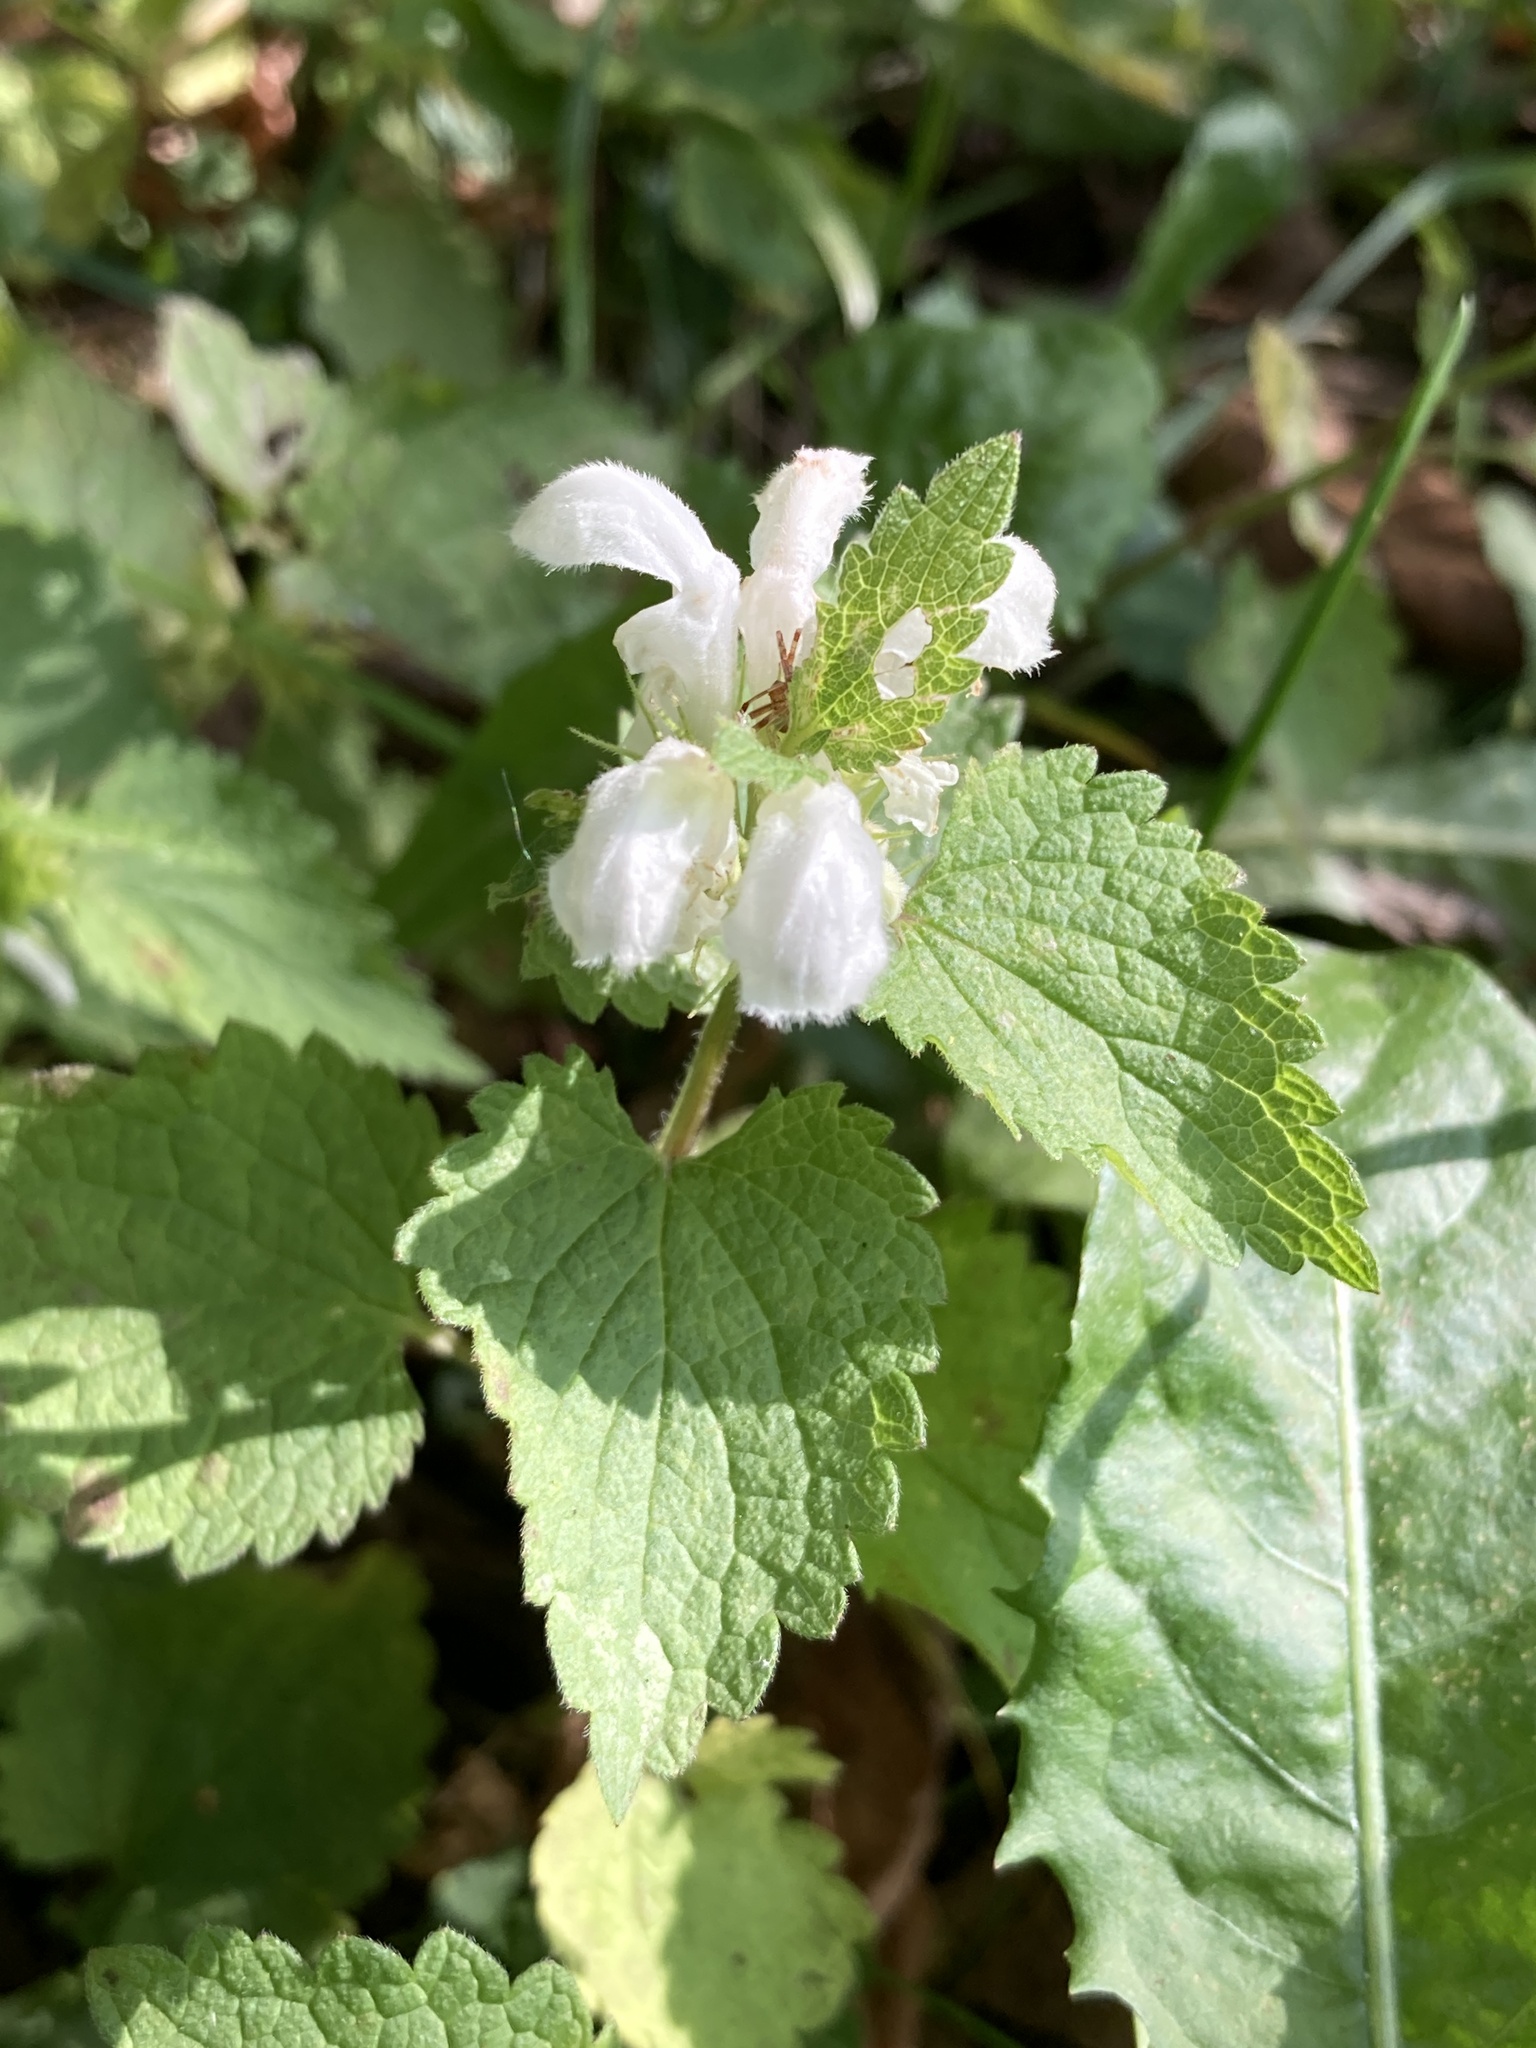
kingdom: Plantae
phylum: Tracheophyta
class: Magnoliopsida
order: Lamiales
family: Lamiaceae
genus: Lamium
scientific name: Lamium album
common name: White dead-nettle
